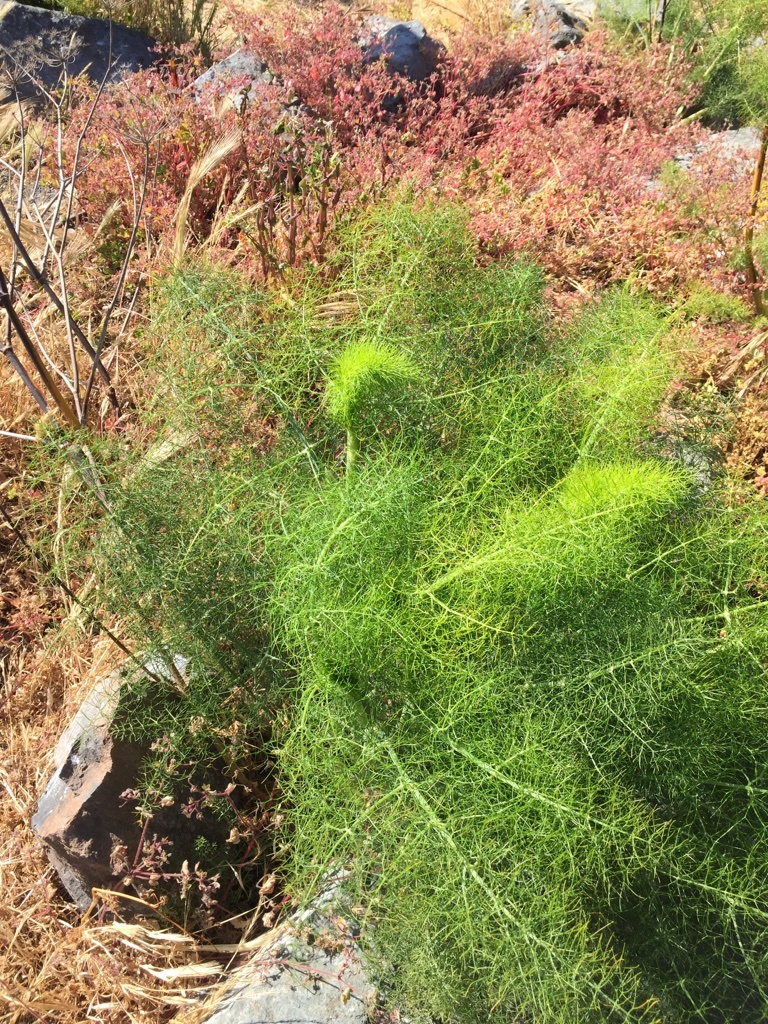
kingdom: Plantae
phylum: Tracheophyta
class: Magnoliopsida
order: Apiales
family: Apiaceae
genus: Foeniculum
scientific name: Foeniculum vulgare
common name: Fennel
